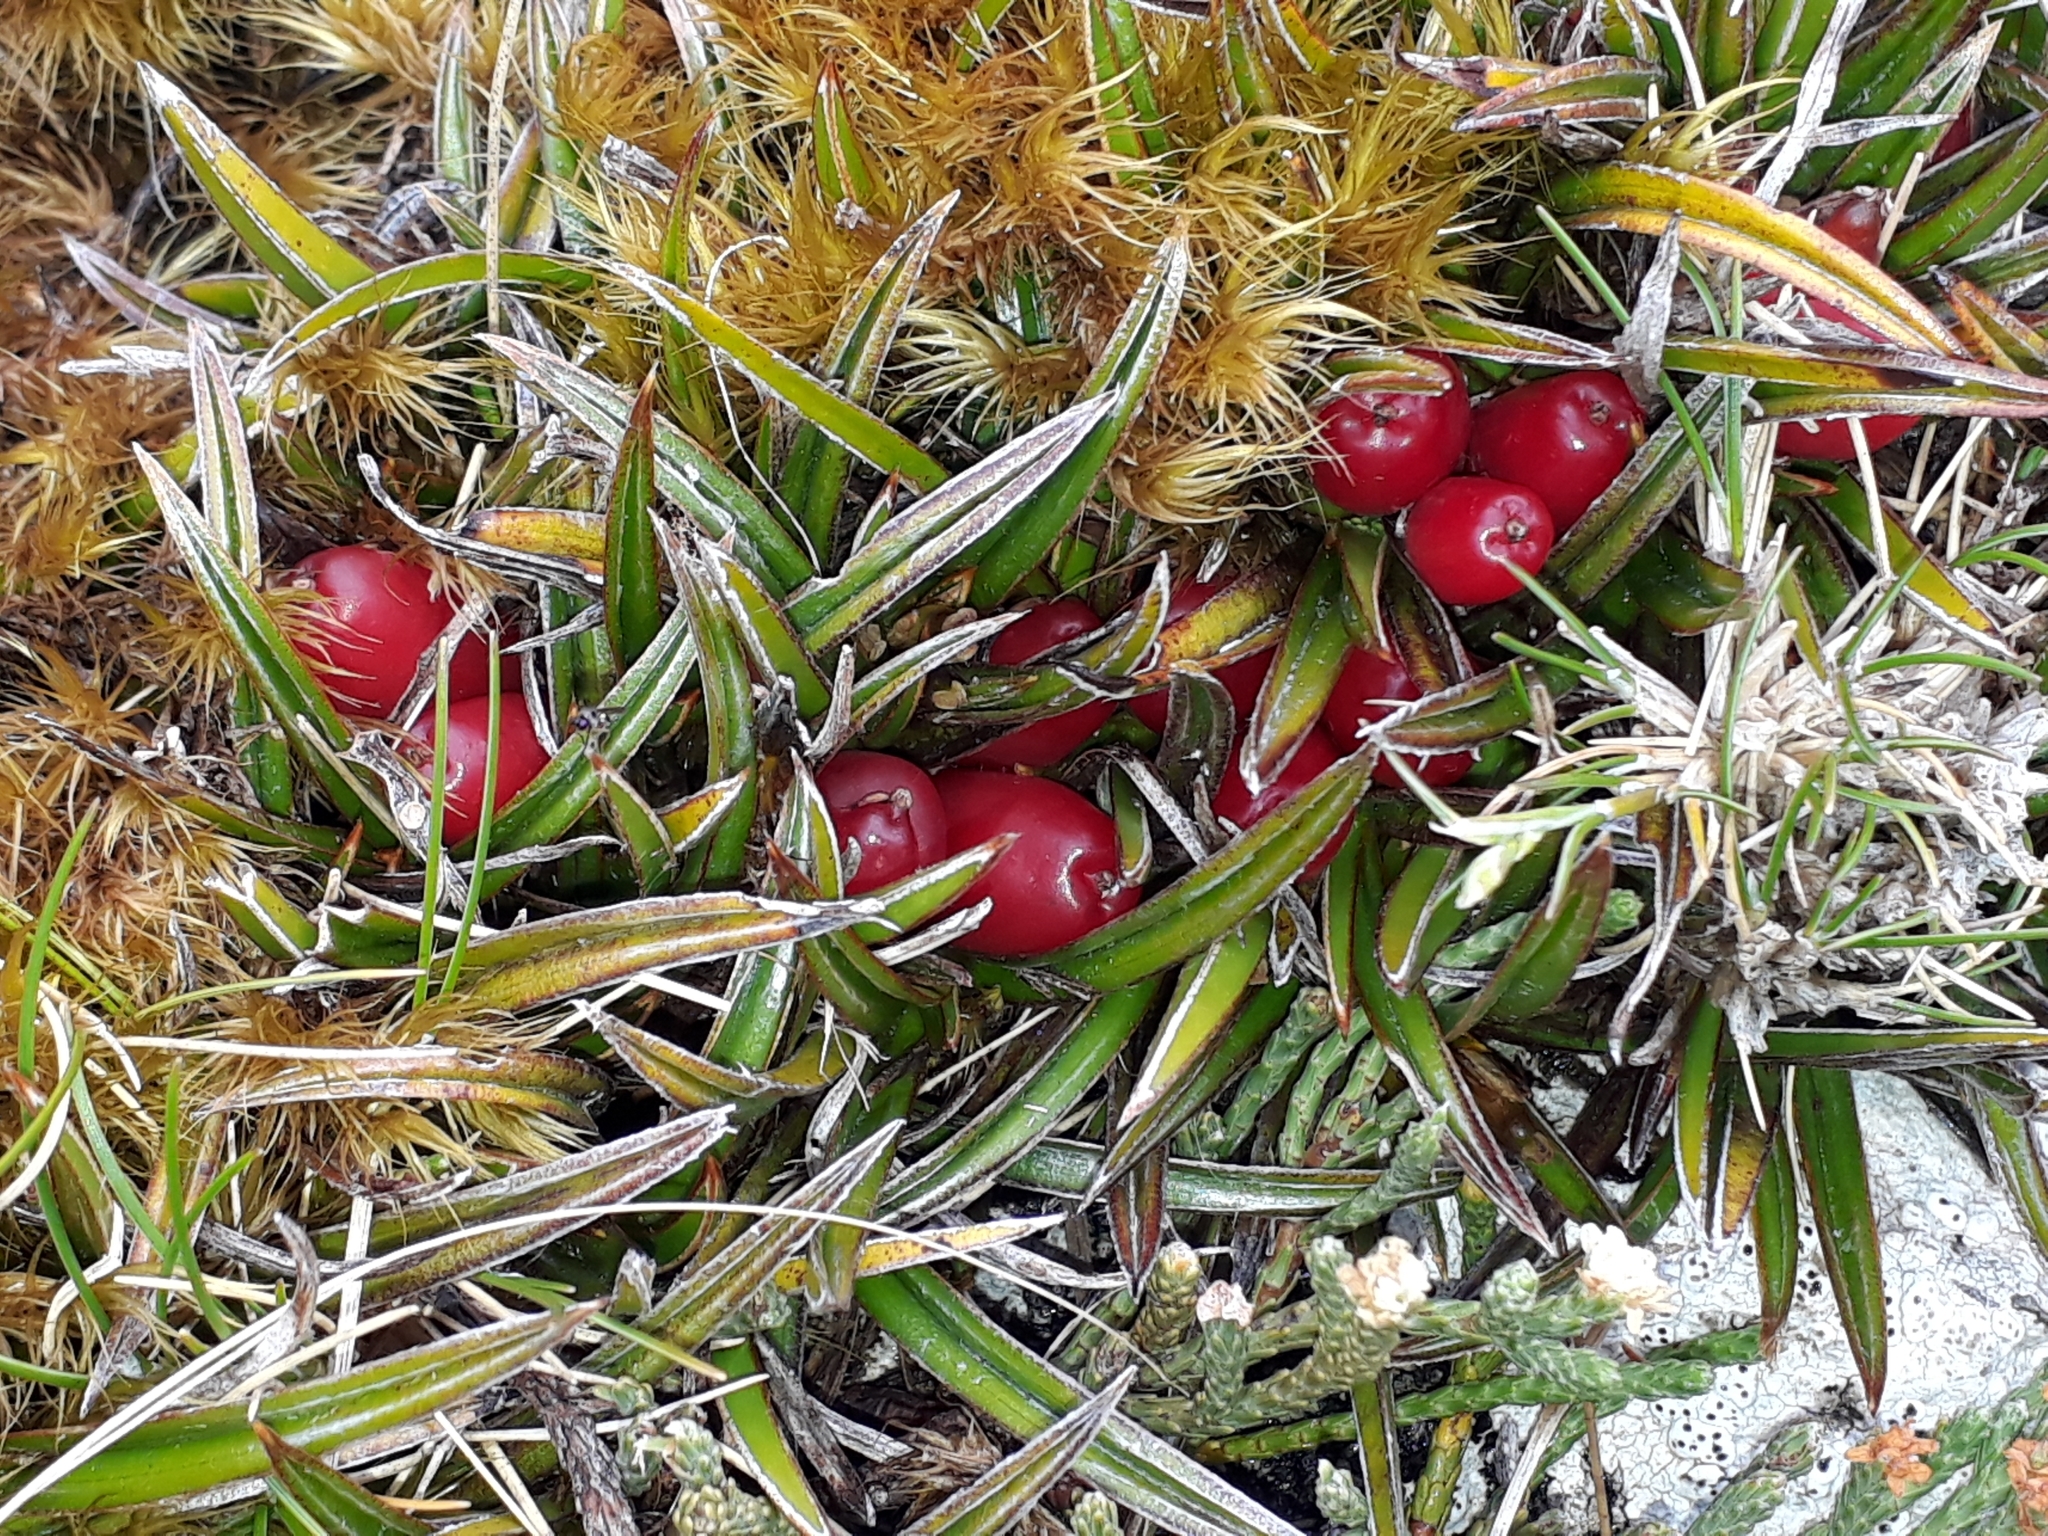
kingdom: Plantae
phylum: Tracheophyta
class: Liliopsida
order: Asparagales
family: Asteliaceae
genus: Astelia
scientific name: Astelia linearis
